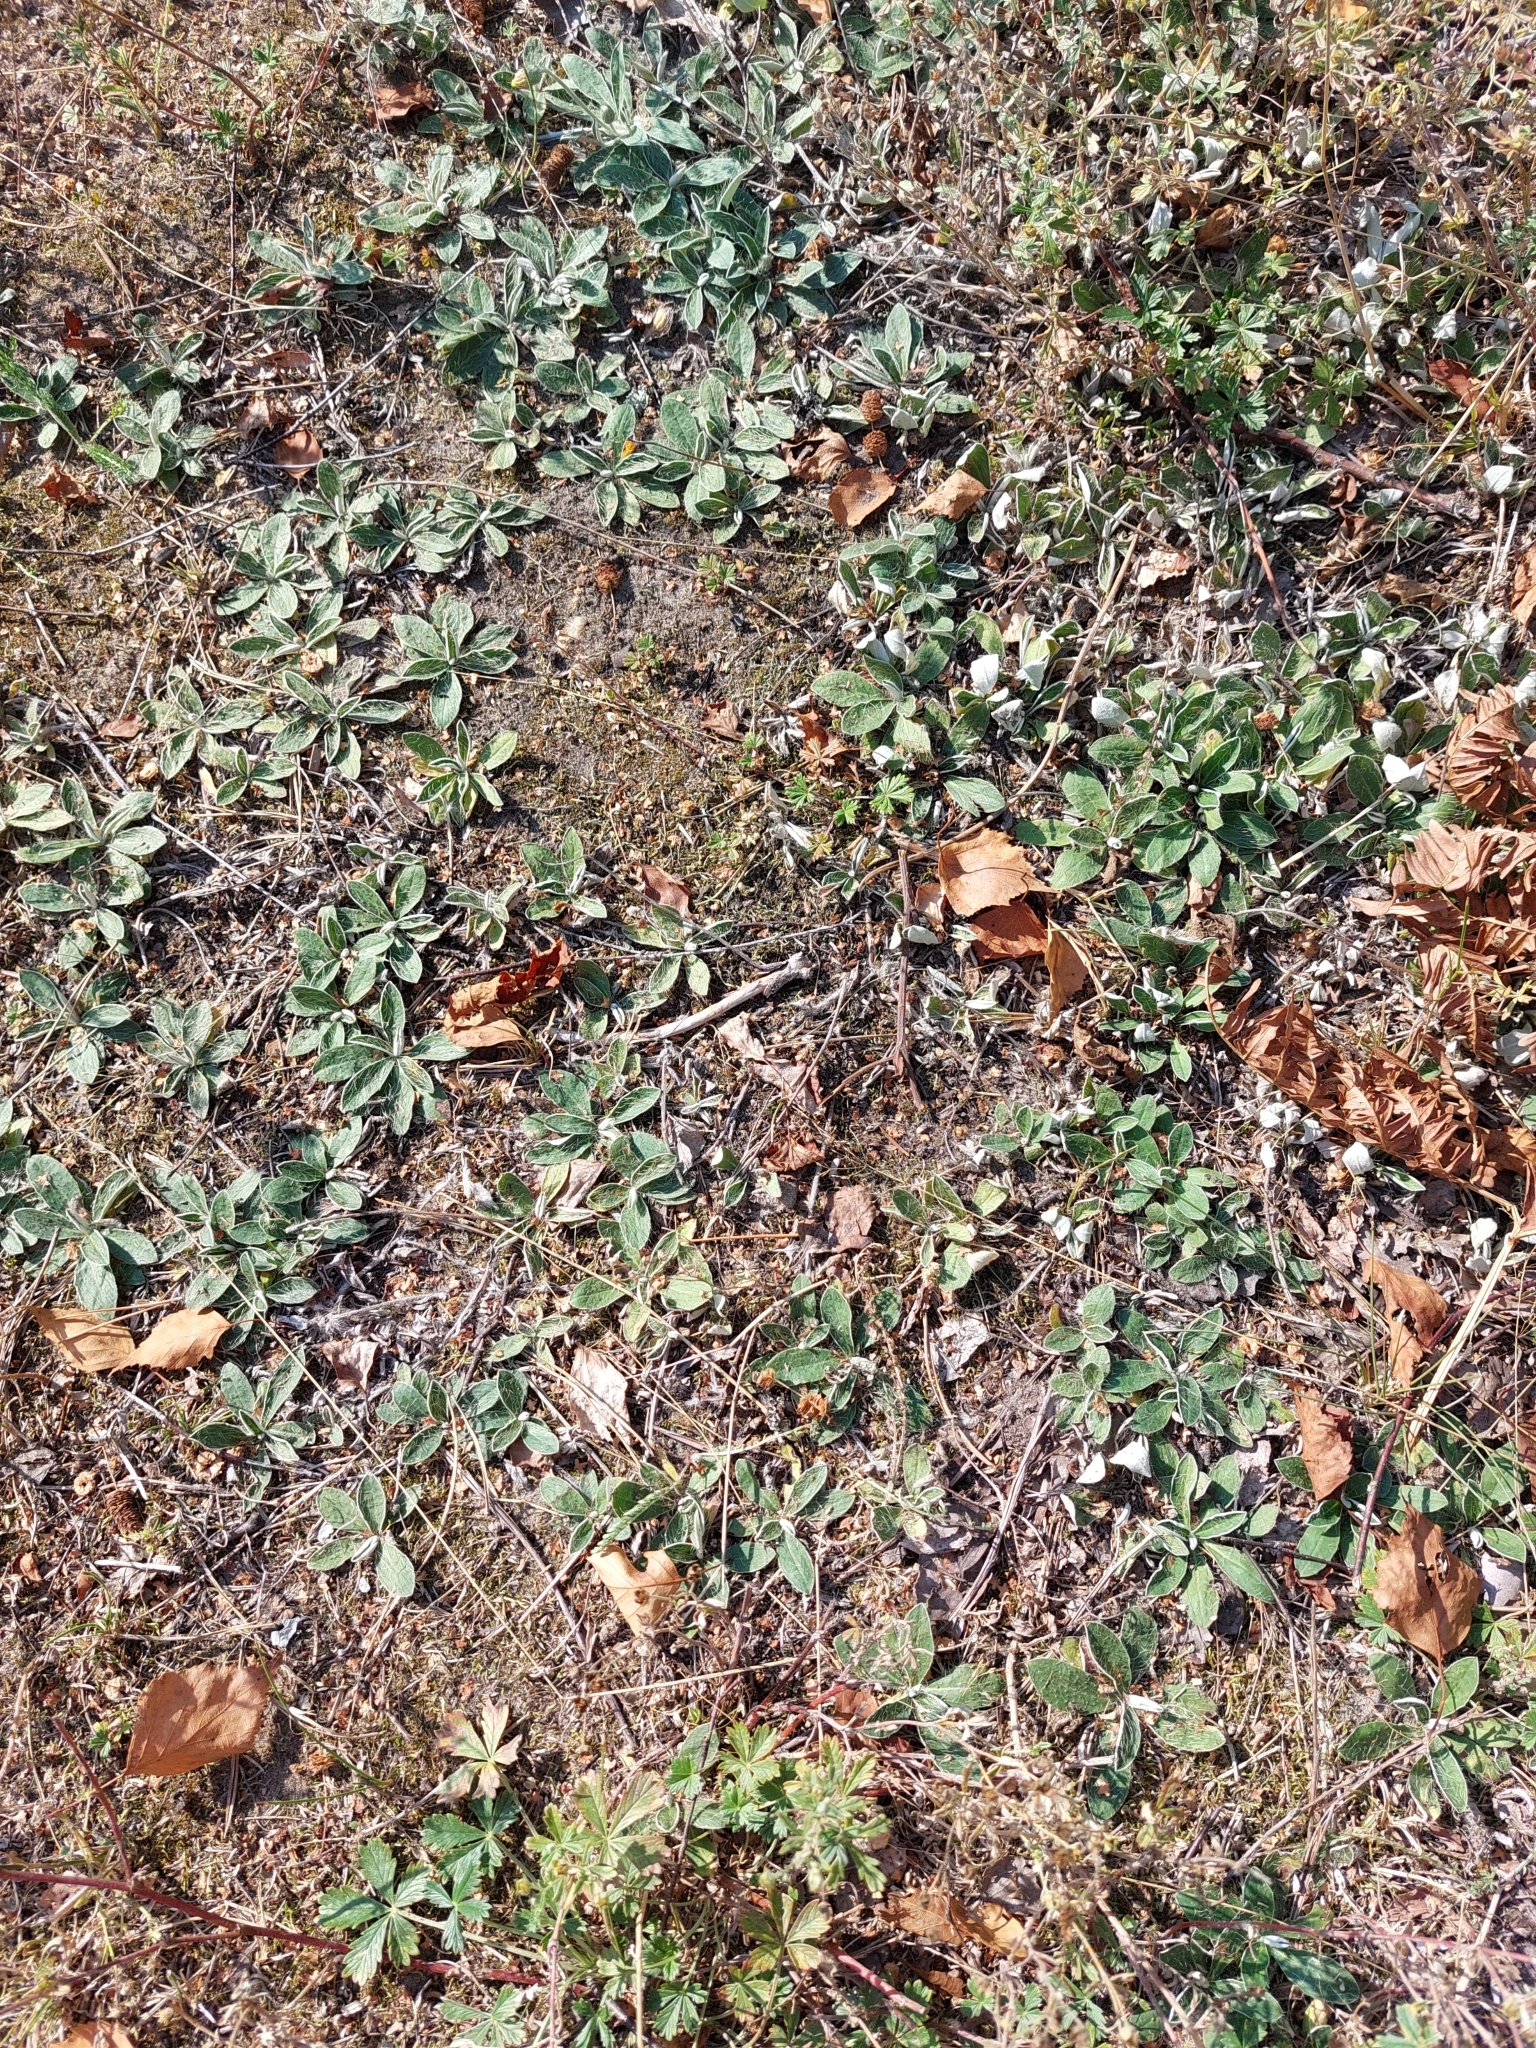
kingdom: Plantae
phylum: Tracheophyta
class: Magnoliopsida
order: Asterales
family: Asteraceae
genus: Pilosella
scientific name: Pilosella officinarum
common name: Mouse-ear hawkweed
